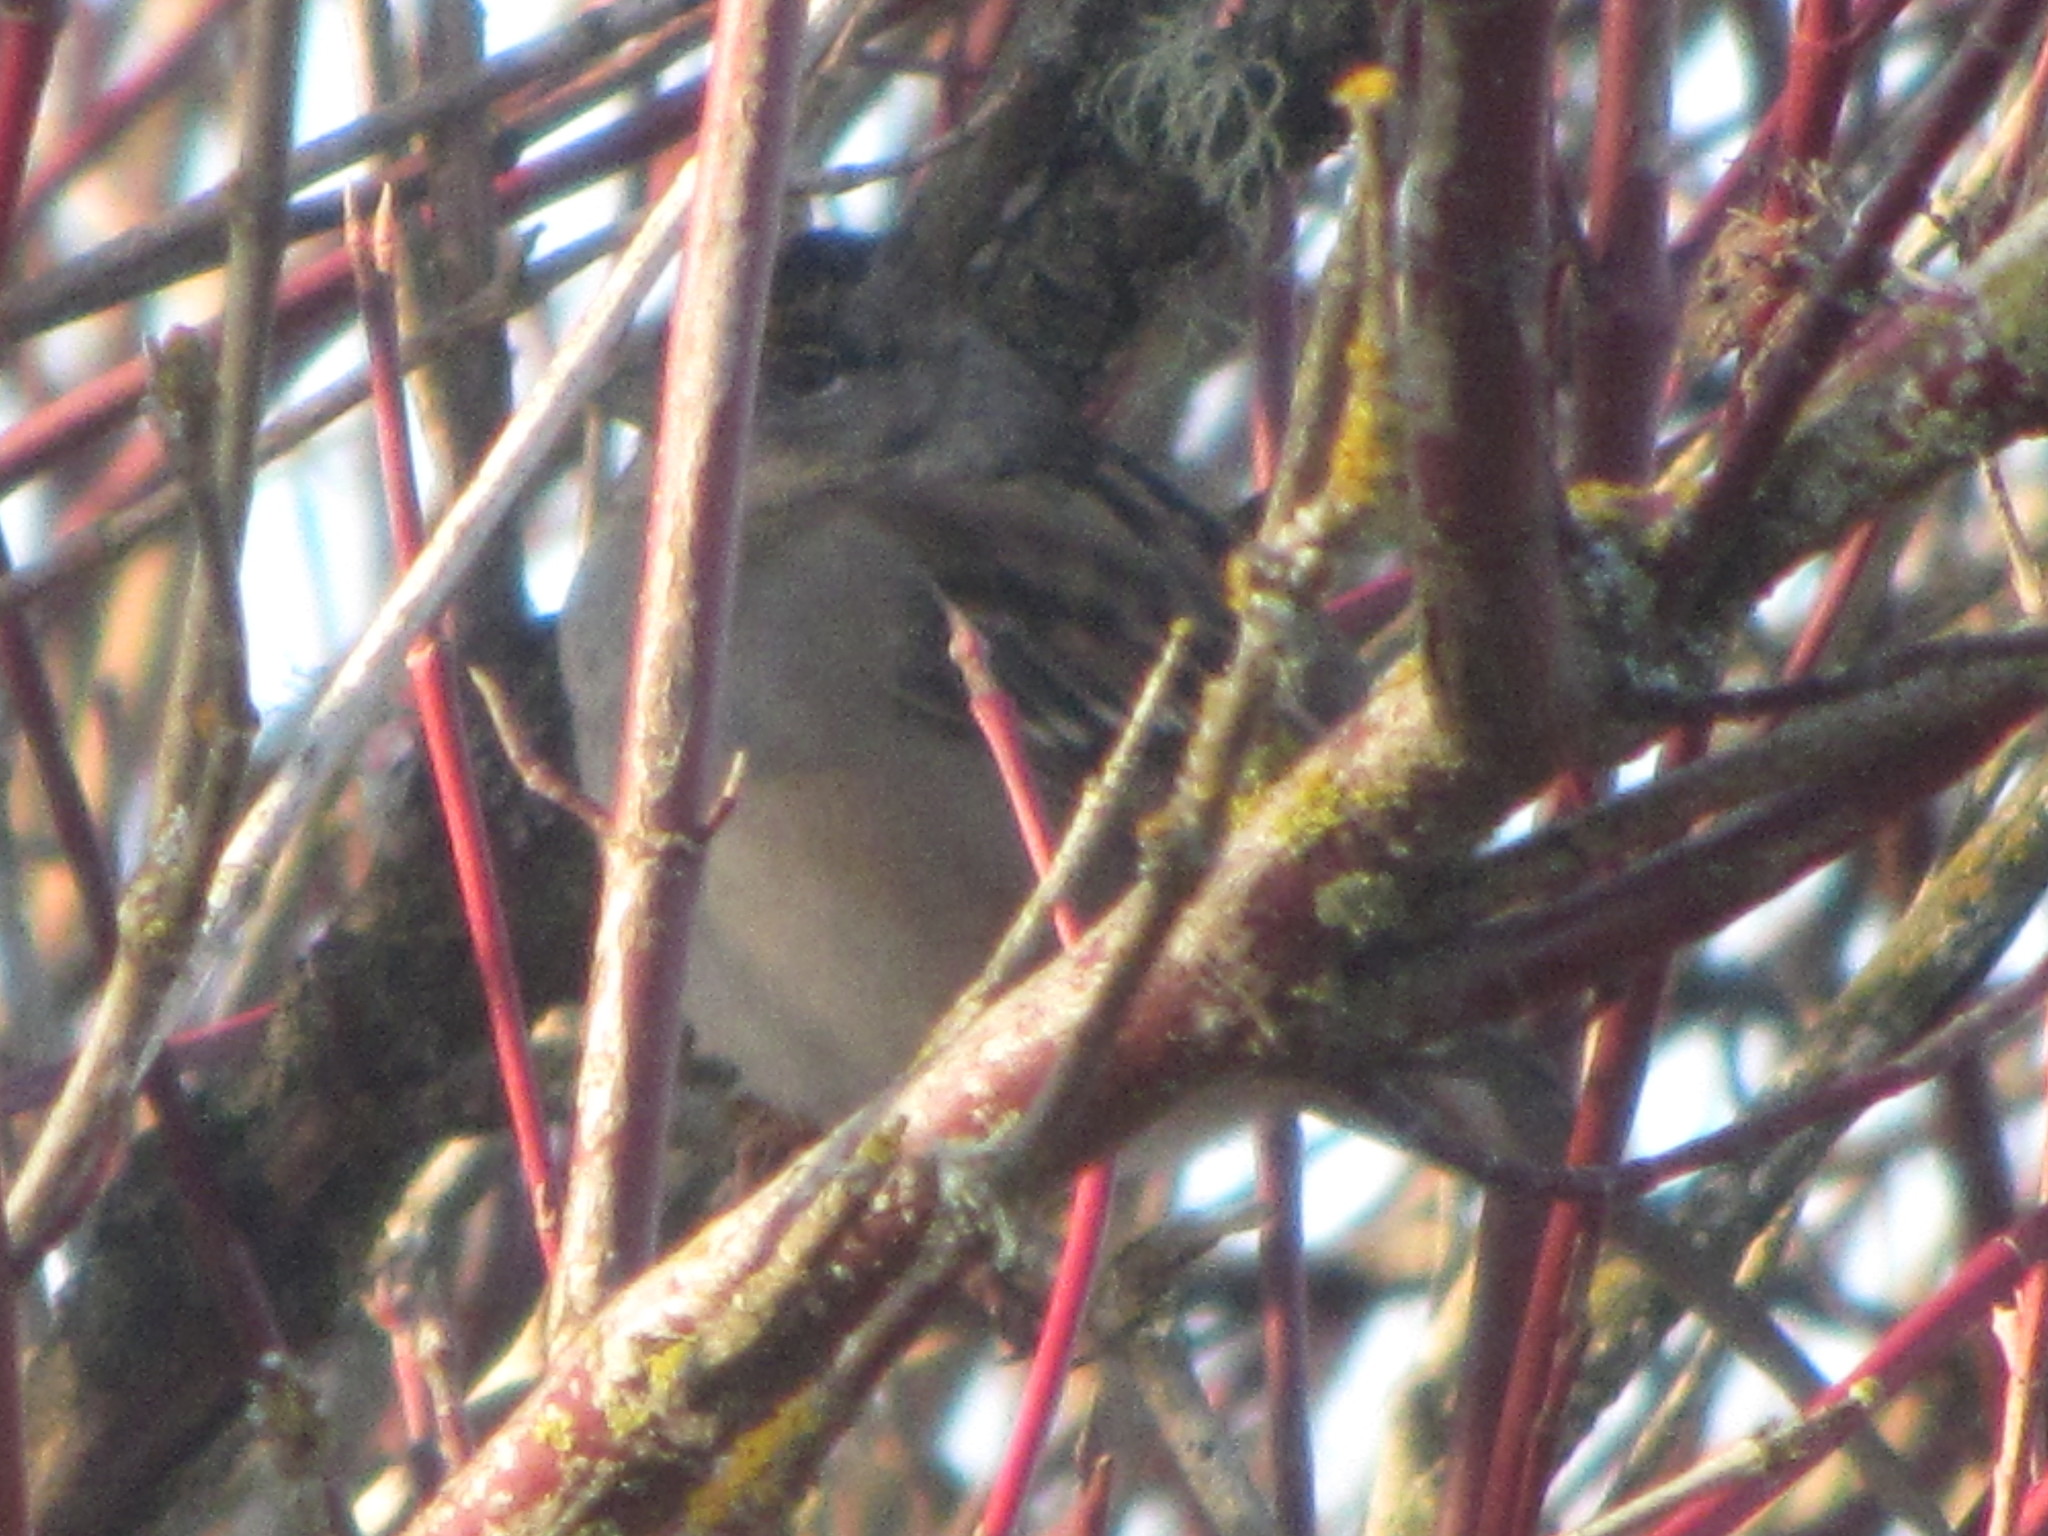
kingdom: Animalia
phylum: Chordata
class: Aves
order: Passeriformes
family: Passerellidae
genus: Zonotrichia
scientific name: Zonotrichia atricapilla
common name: Golden-crowned sparrow
